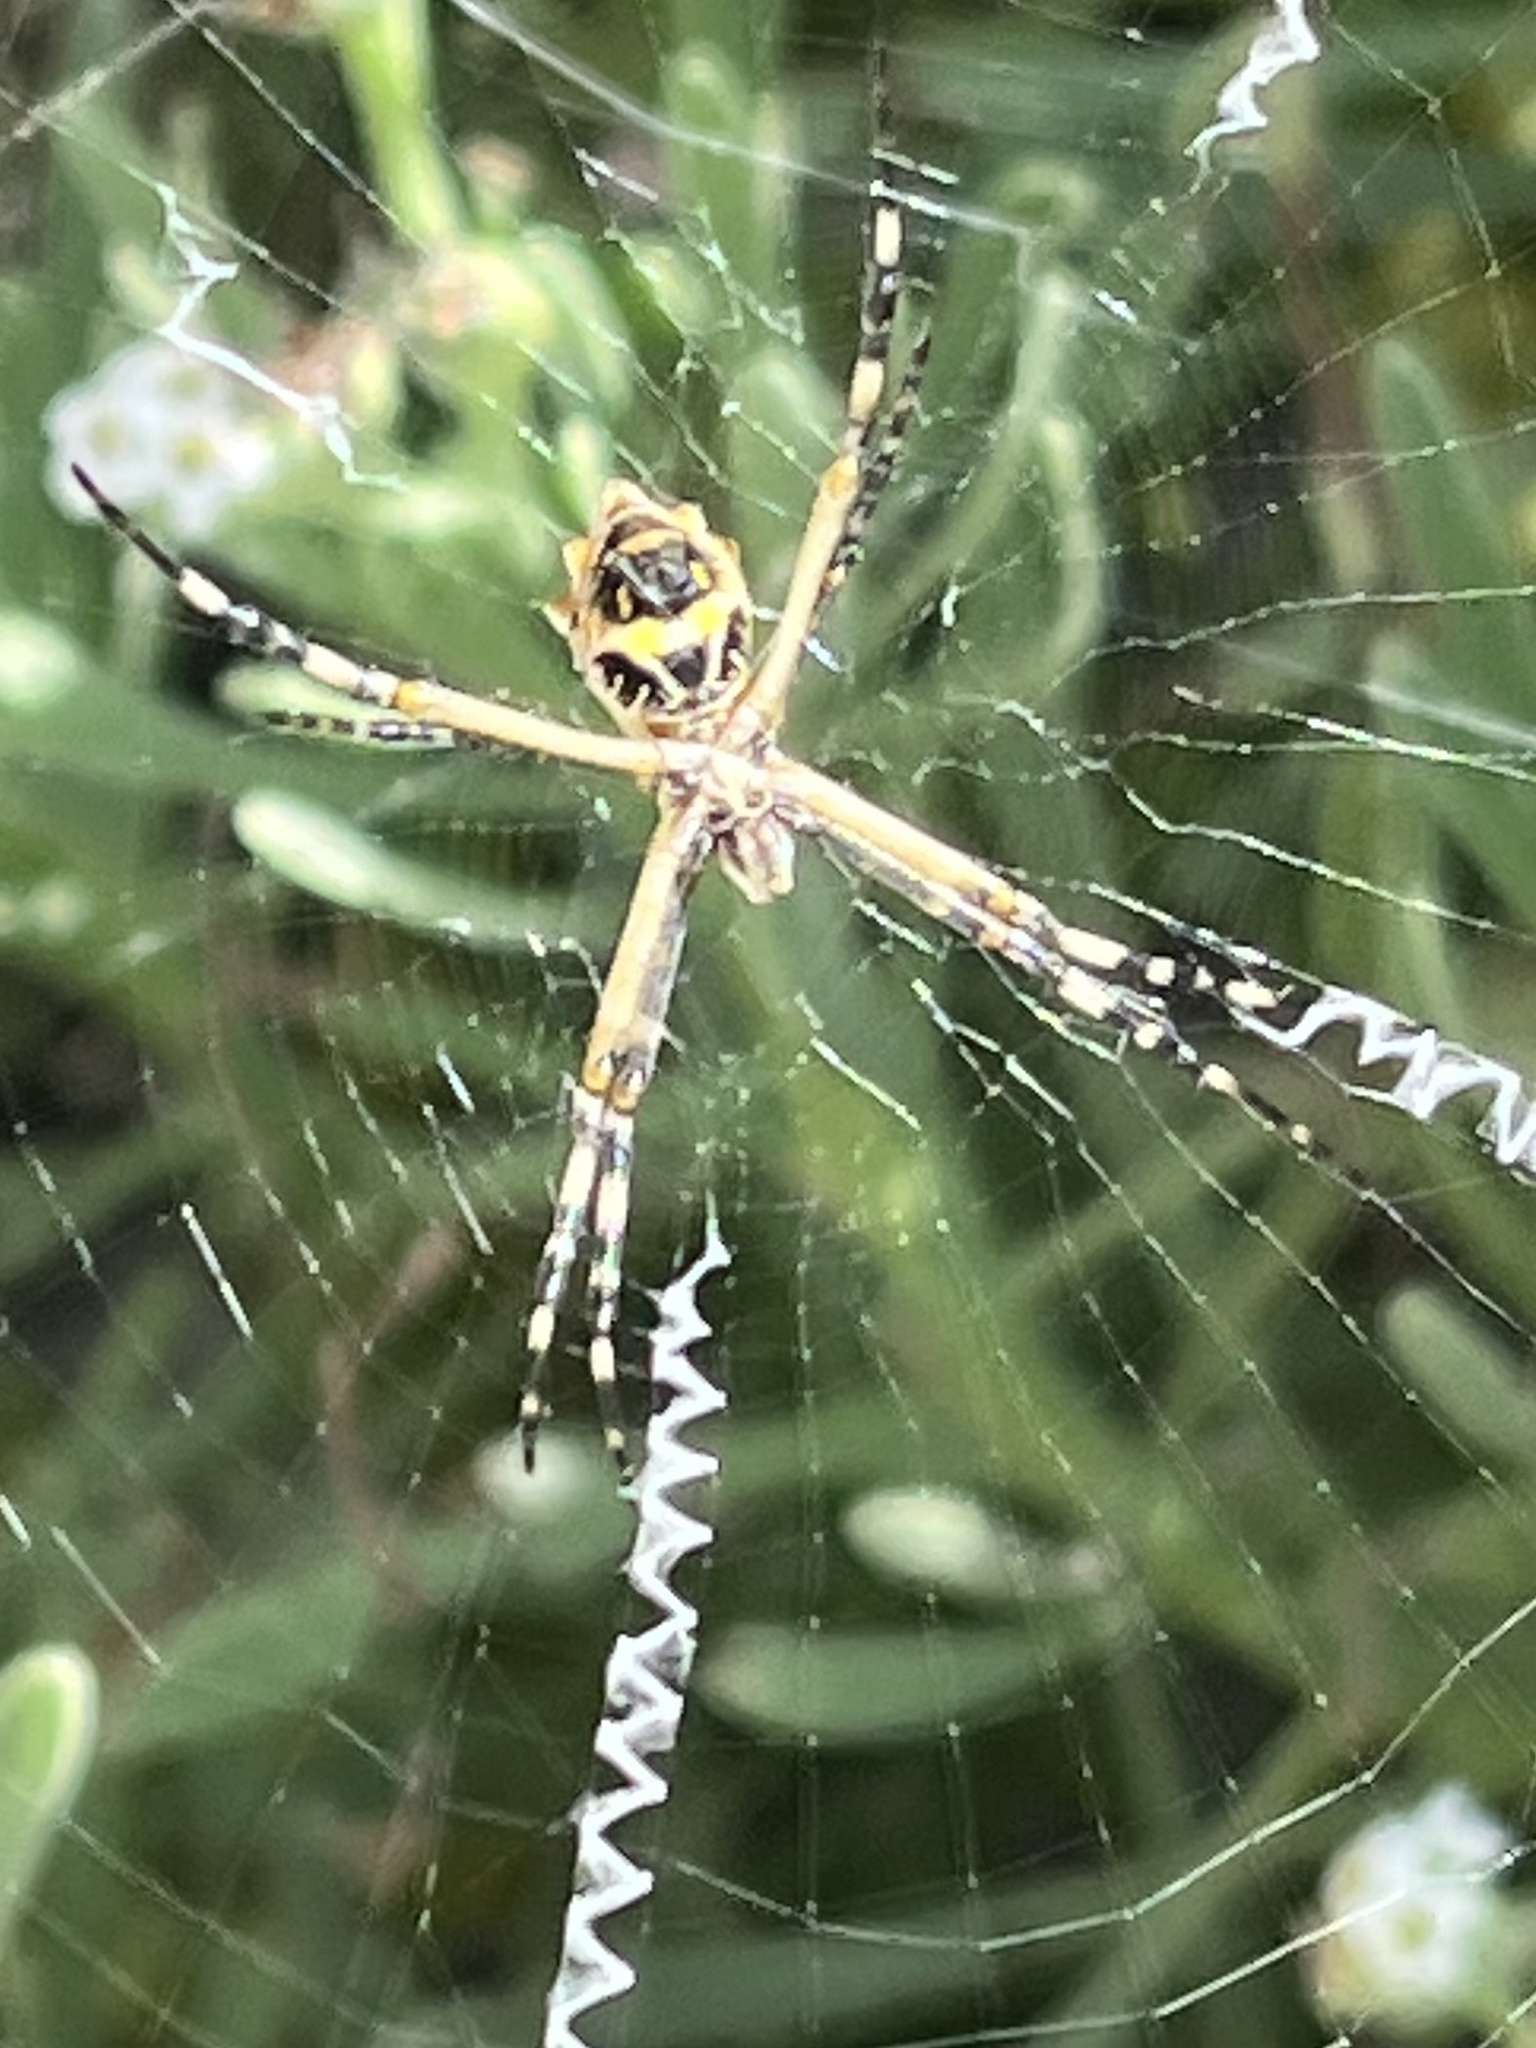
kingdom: Animalia
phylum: Arthropoda
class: Arachnida
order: Araneae
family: Araneidae
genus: Argiope
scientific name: Argiope argentata
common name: Orb weavers
